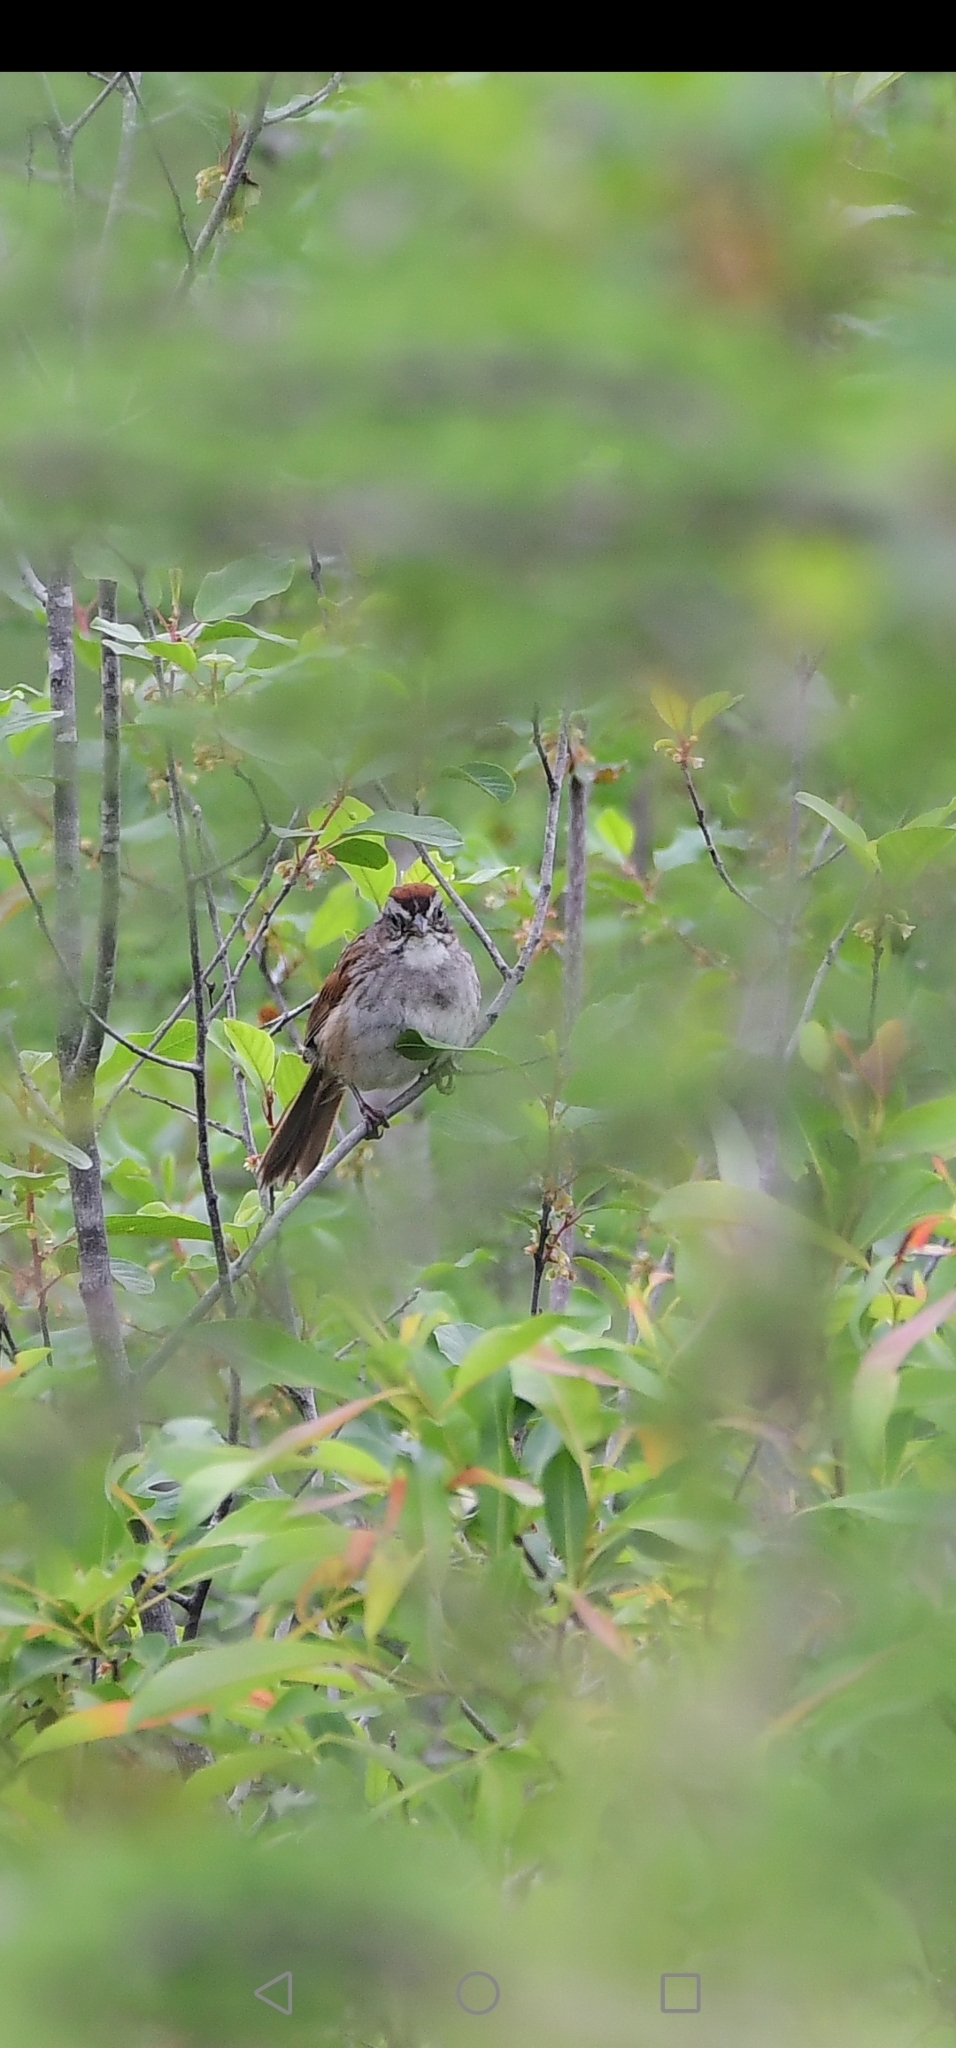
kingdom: Animalia
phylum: Chordata
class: Aves
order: Passeriformes
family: Passerellidae
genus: Melospiza
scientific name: Melospiza georgiana
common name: Swamp sparrow
